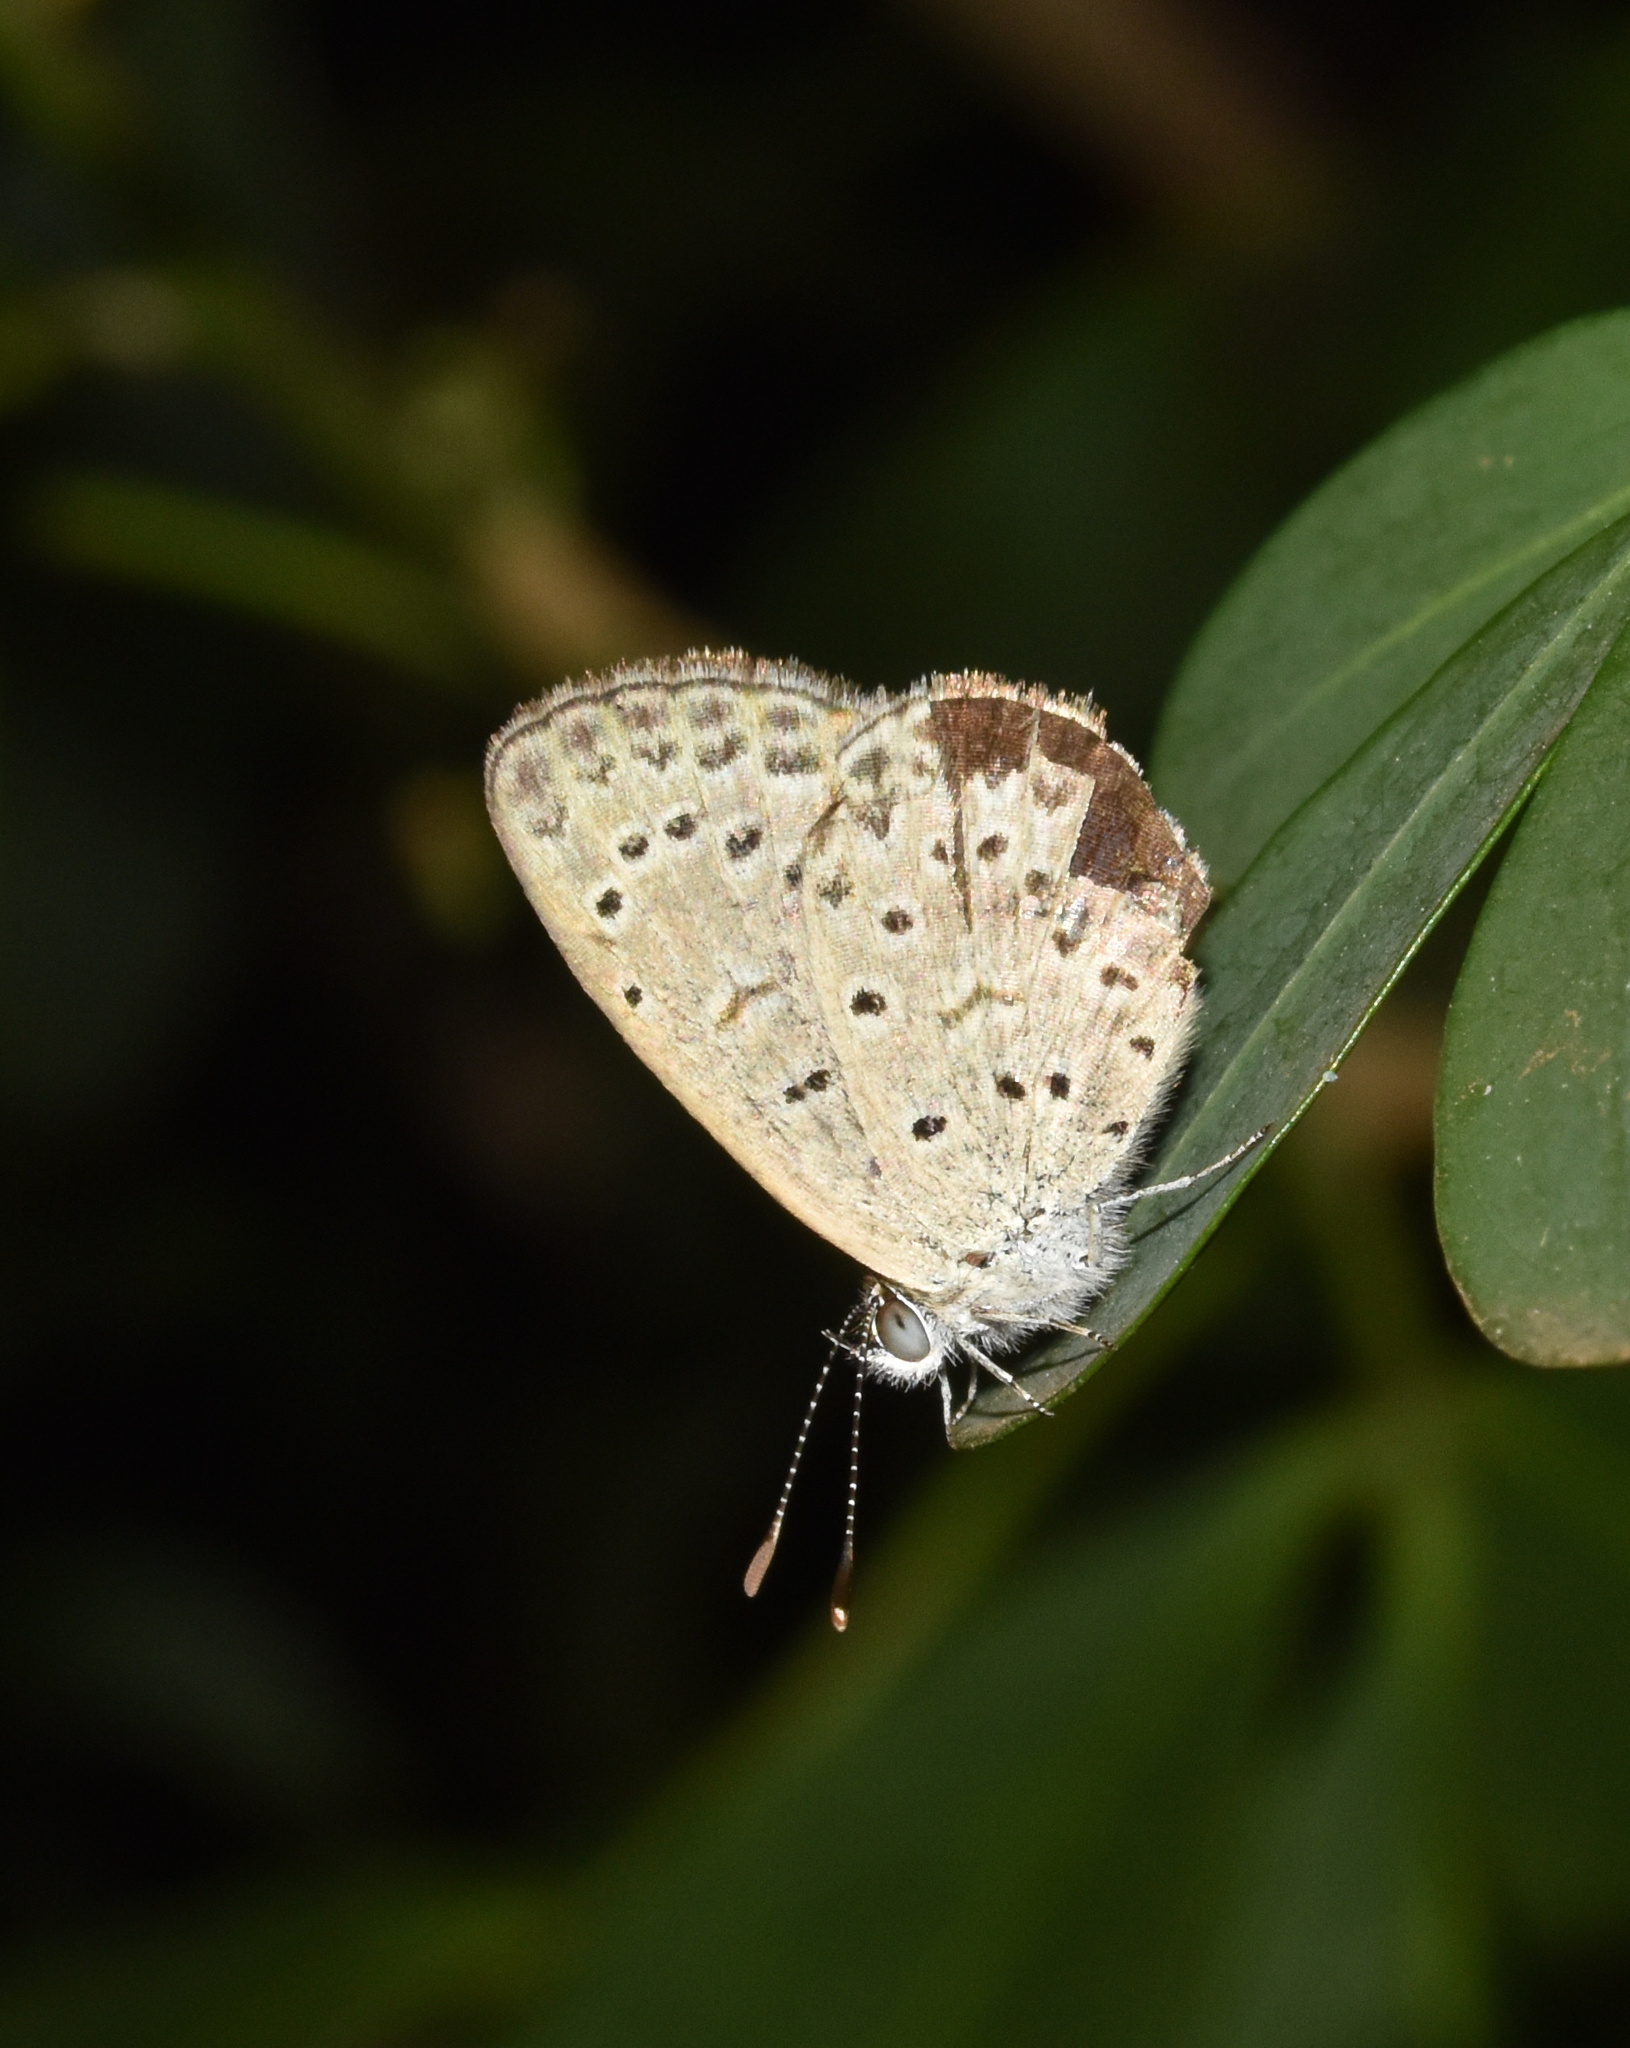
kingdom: Animalia
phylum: Arthropoda
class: Insecta
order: Lepidoptera
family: Lycaenidae
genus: Zizeeria
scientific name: Zizeeria knysna
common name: African grass blue
